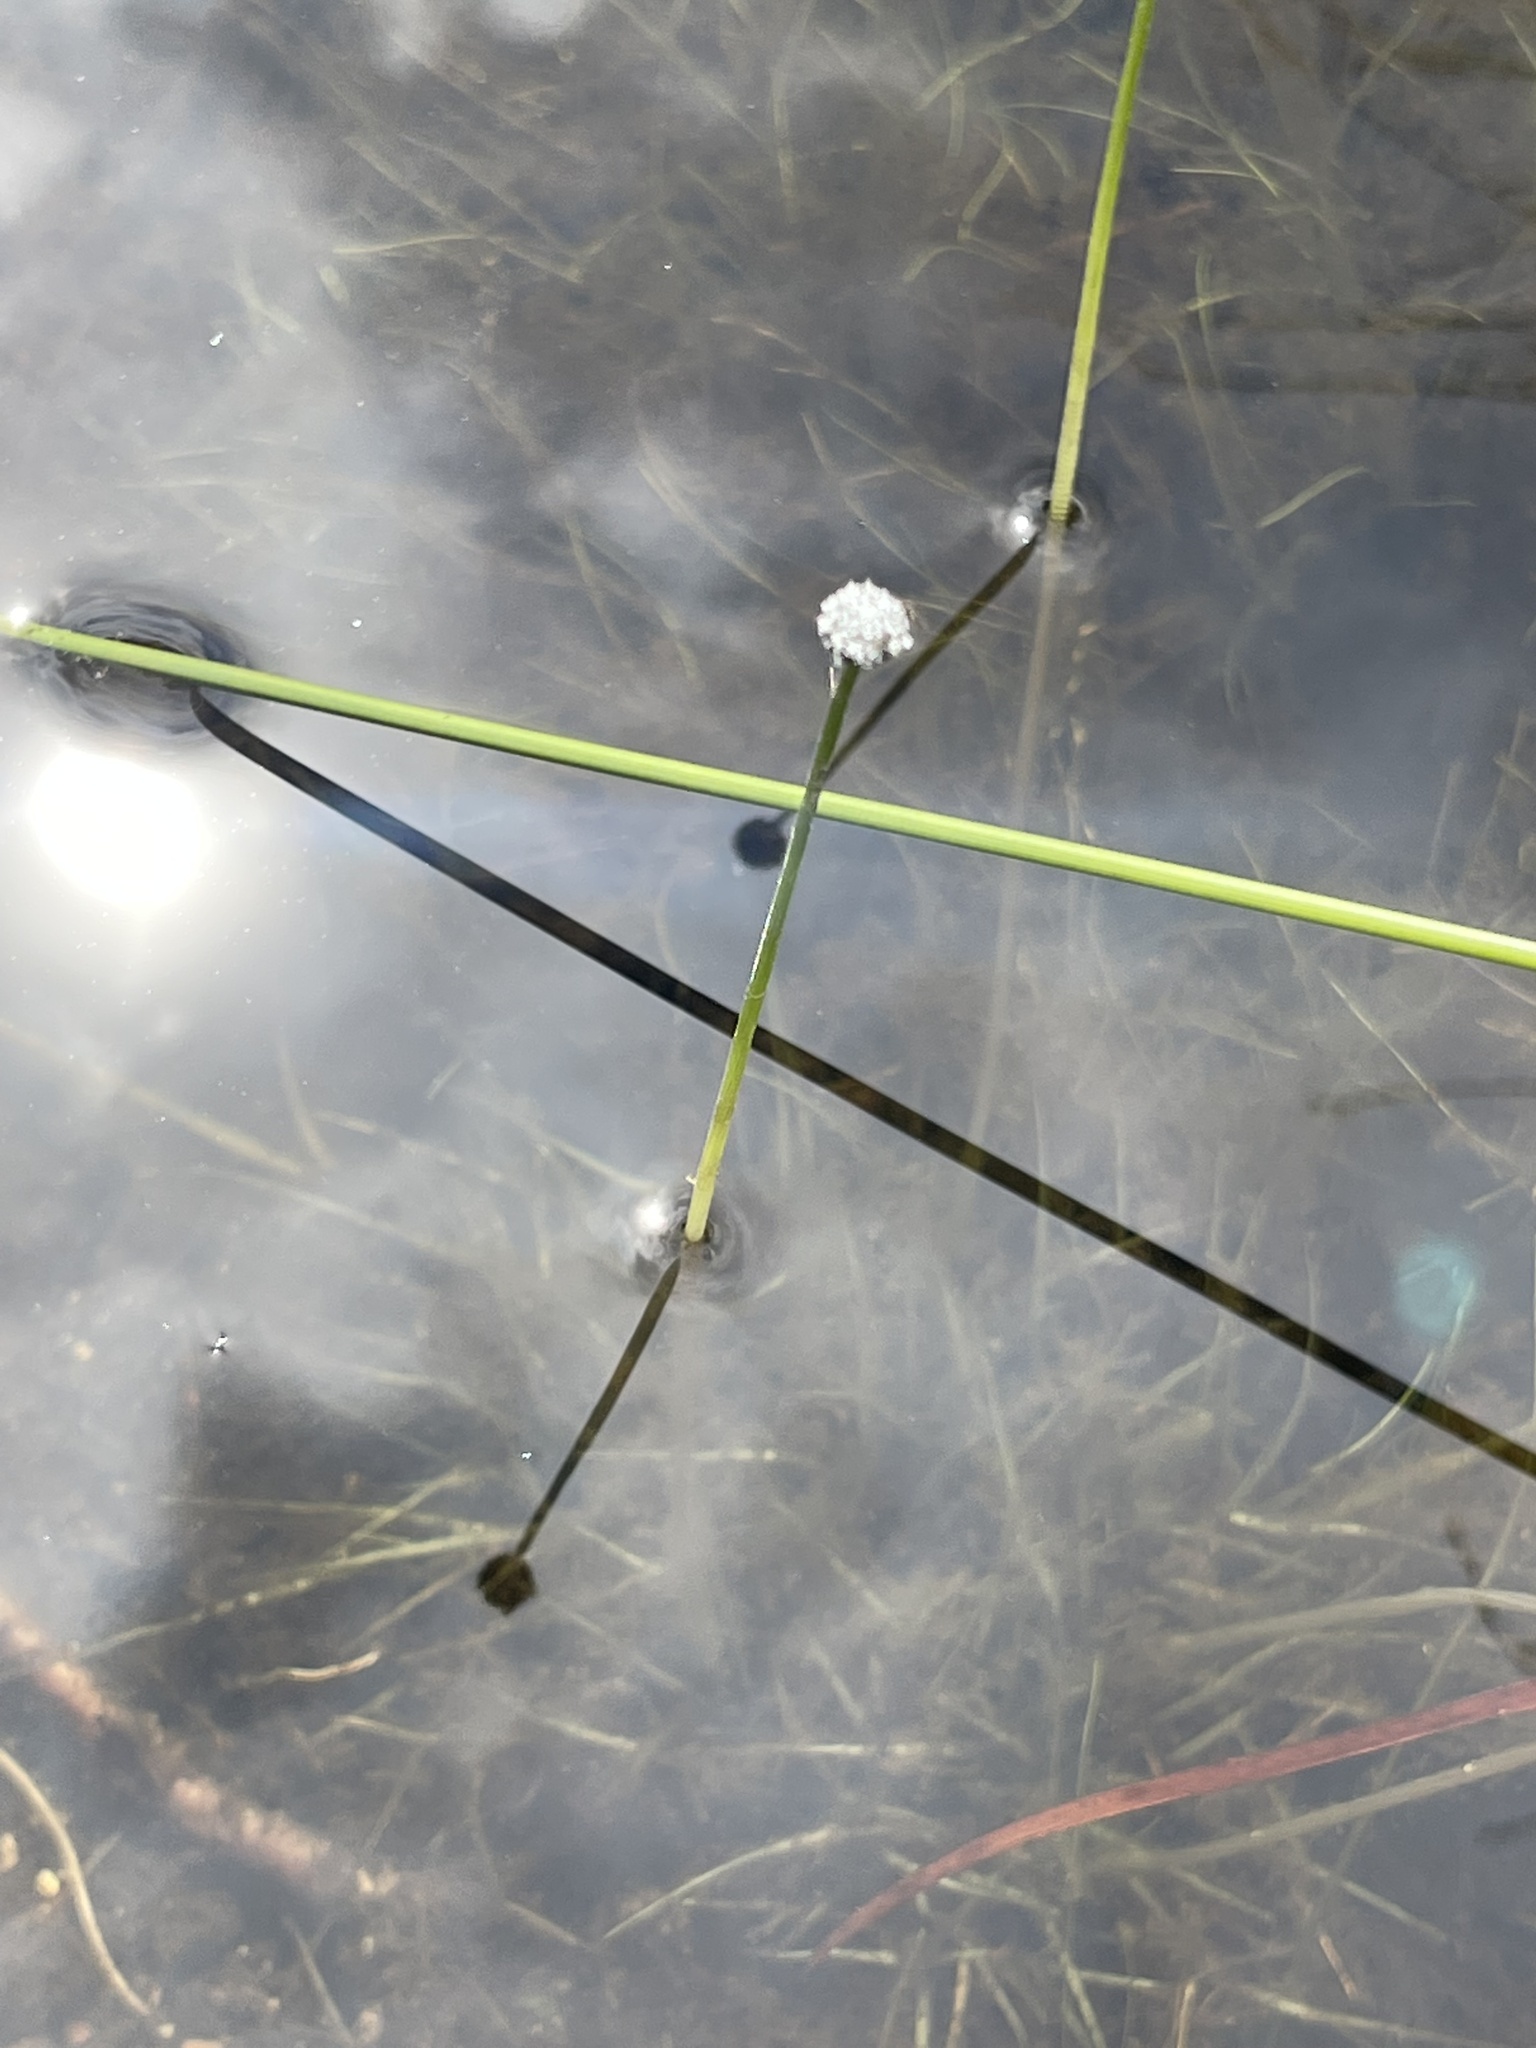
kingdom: Plantae
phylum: Tracheophyta
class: Liliopsida
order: Poales
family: Eriocaulaceae
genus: Eriocaulon
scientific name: Eriocaulon aquaticum
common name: Pipewort
